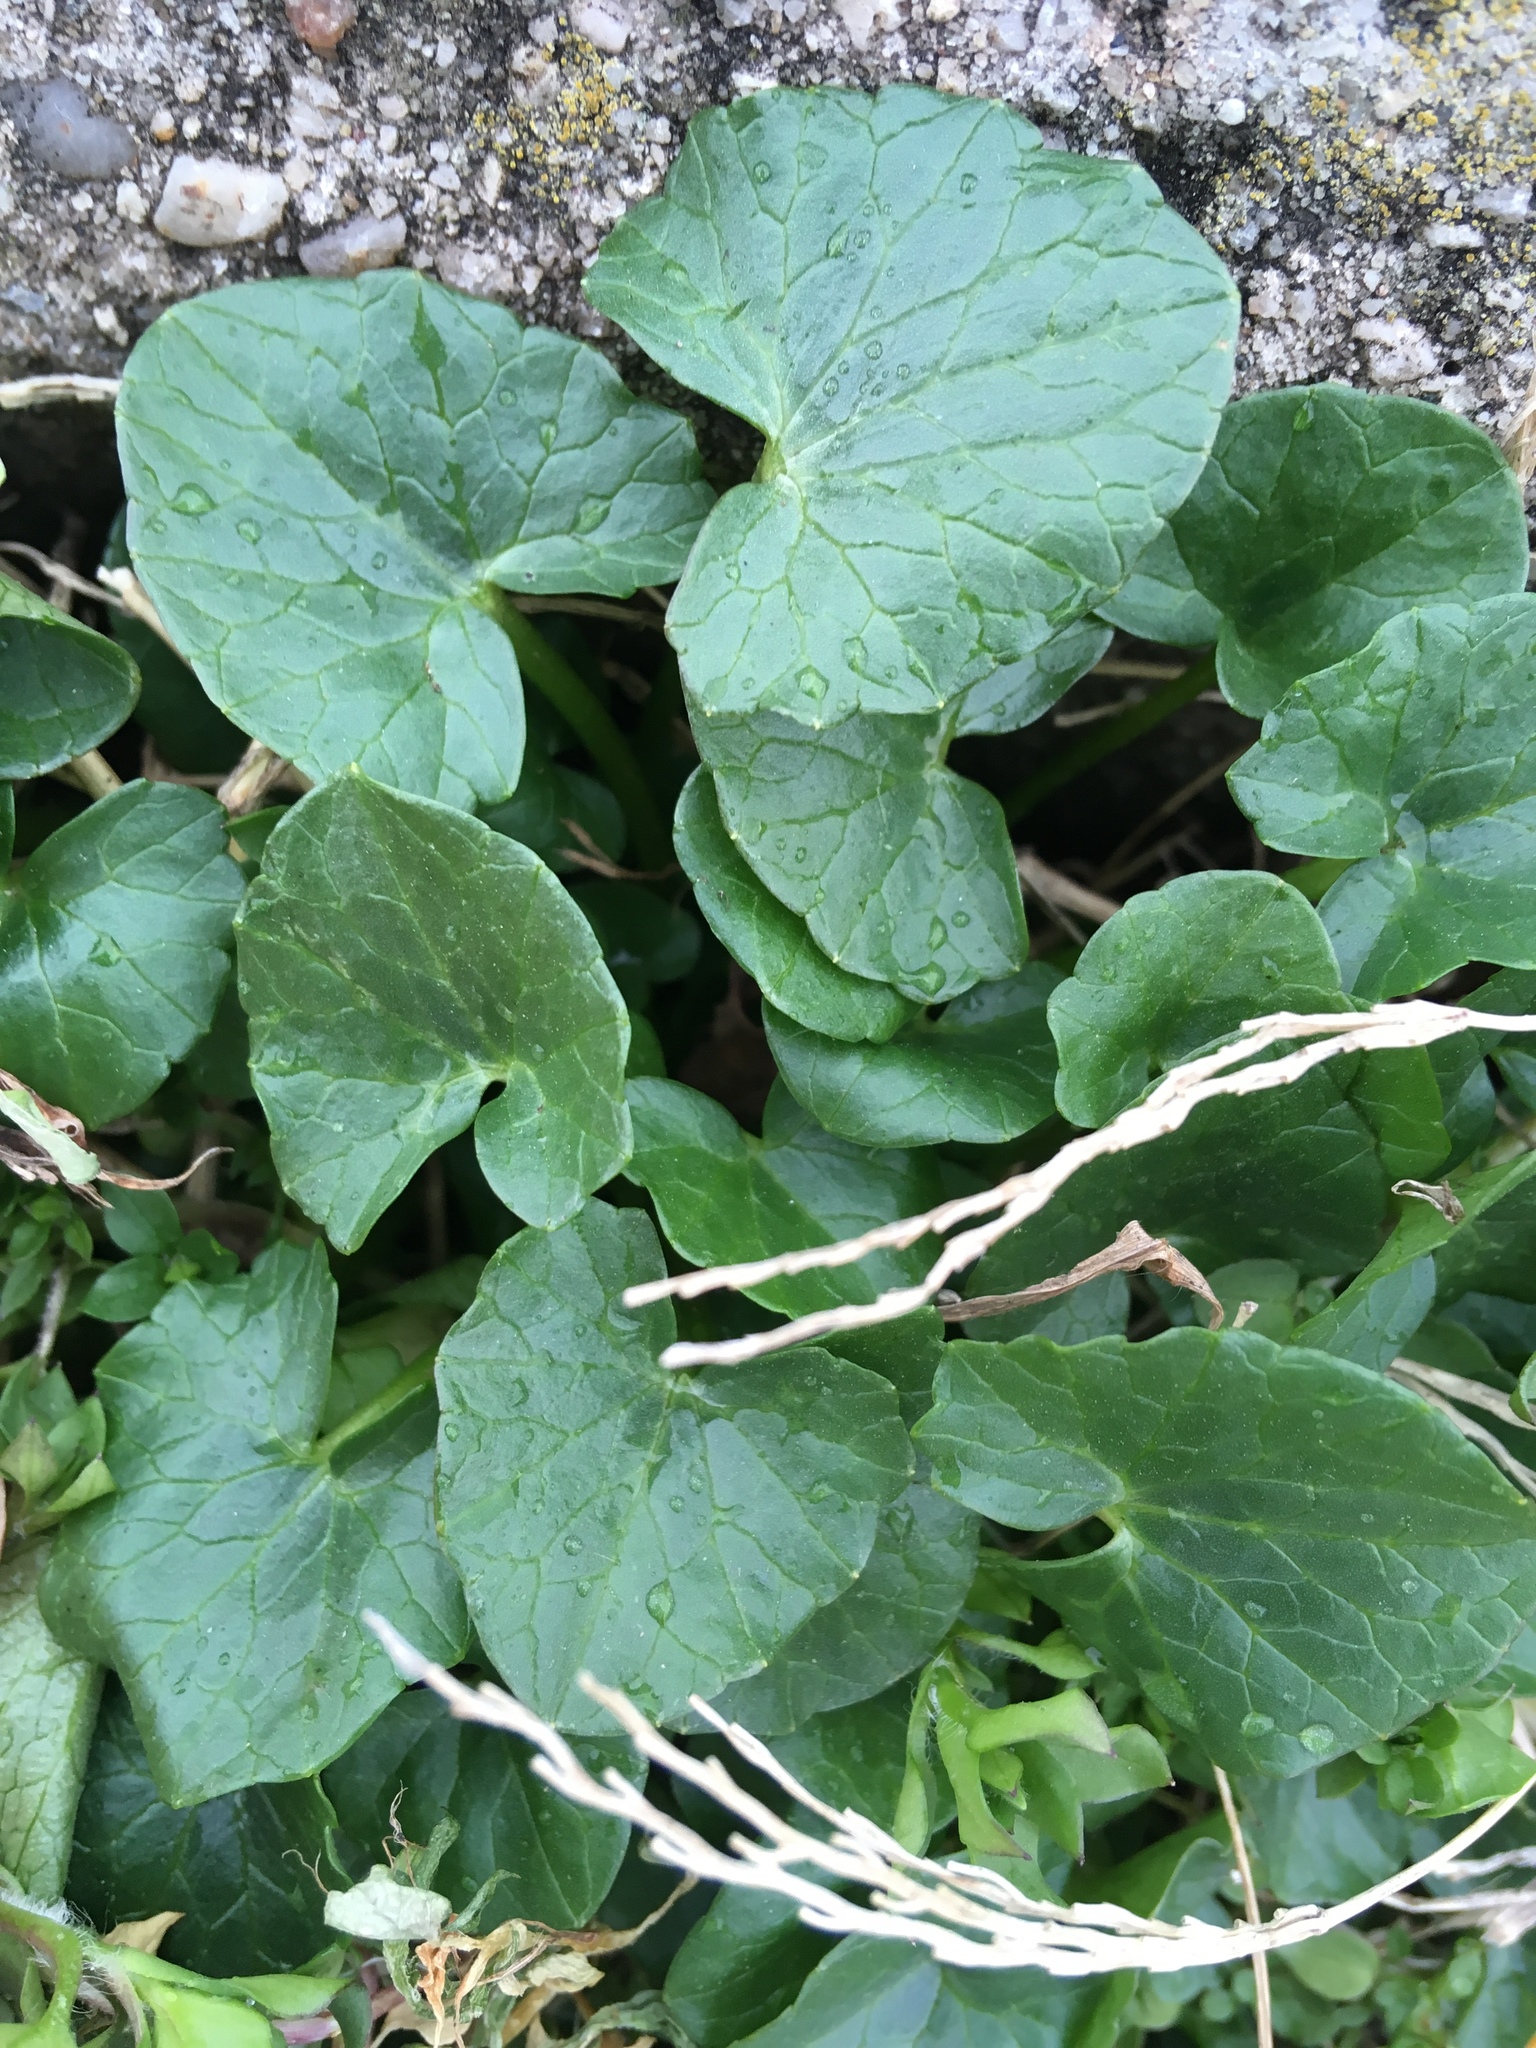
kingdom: Plantae
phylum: Tracheophyta
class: Magnoliopsida
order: Ranunculales
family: Ranunculaceae
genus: Ficaria
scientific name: Ficaria verna
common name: Lesser celandine
